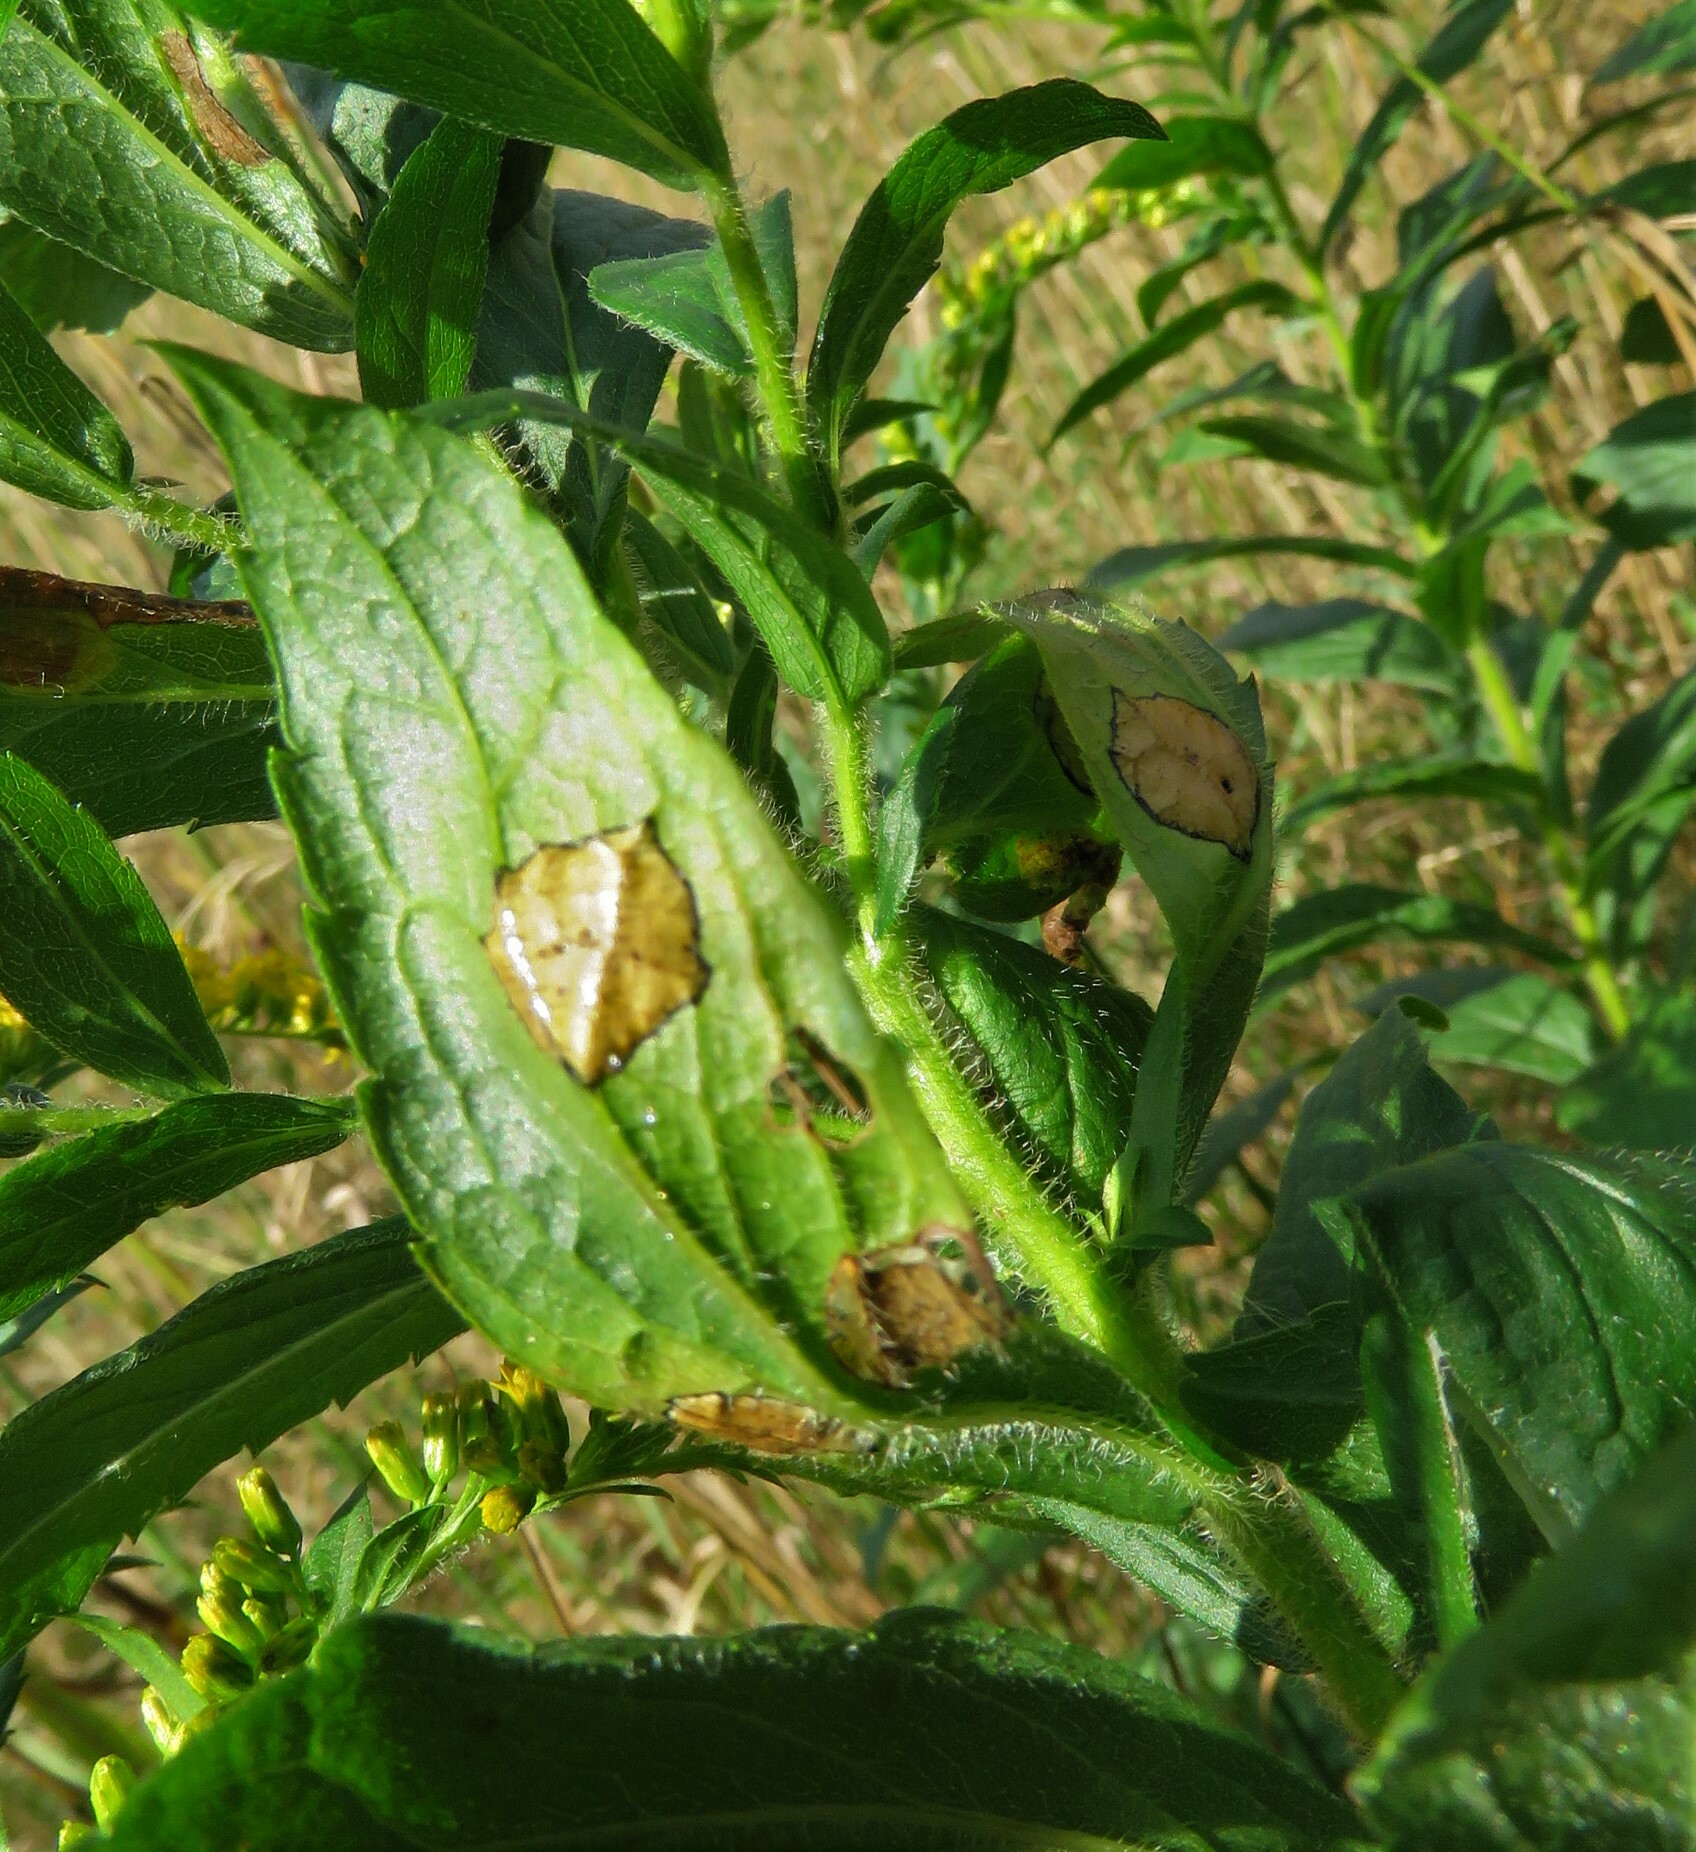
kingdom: Animalia
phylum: Arthropoda
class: Insecta
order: Diptera
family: Cecidomyiidae
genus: Asteromyia
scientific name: Asteromyia carbonifera
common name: Carbonifera goldenrod gall midge
